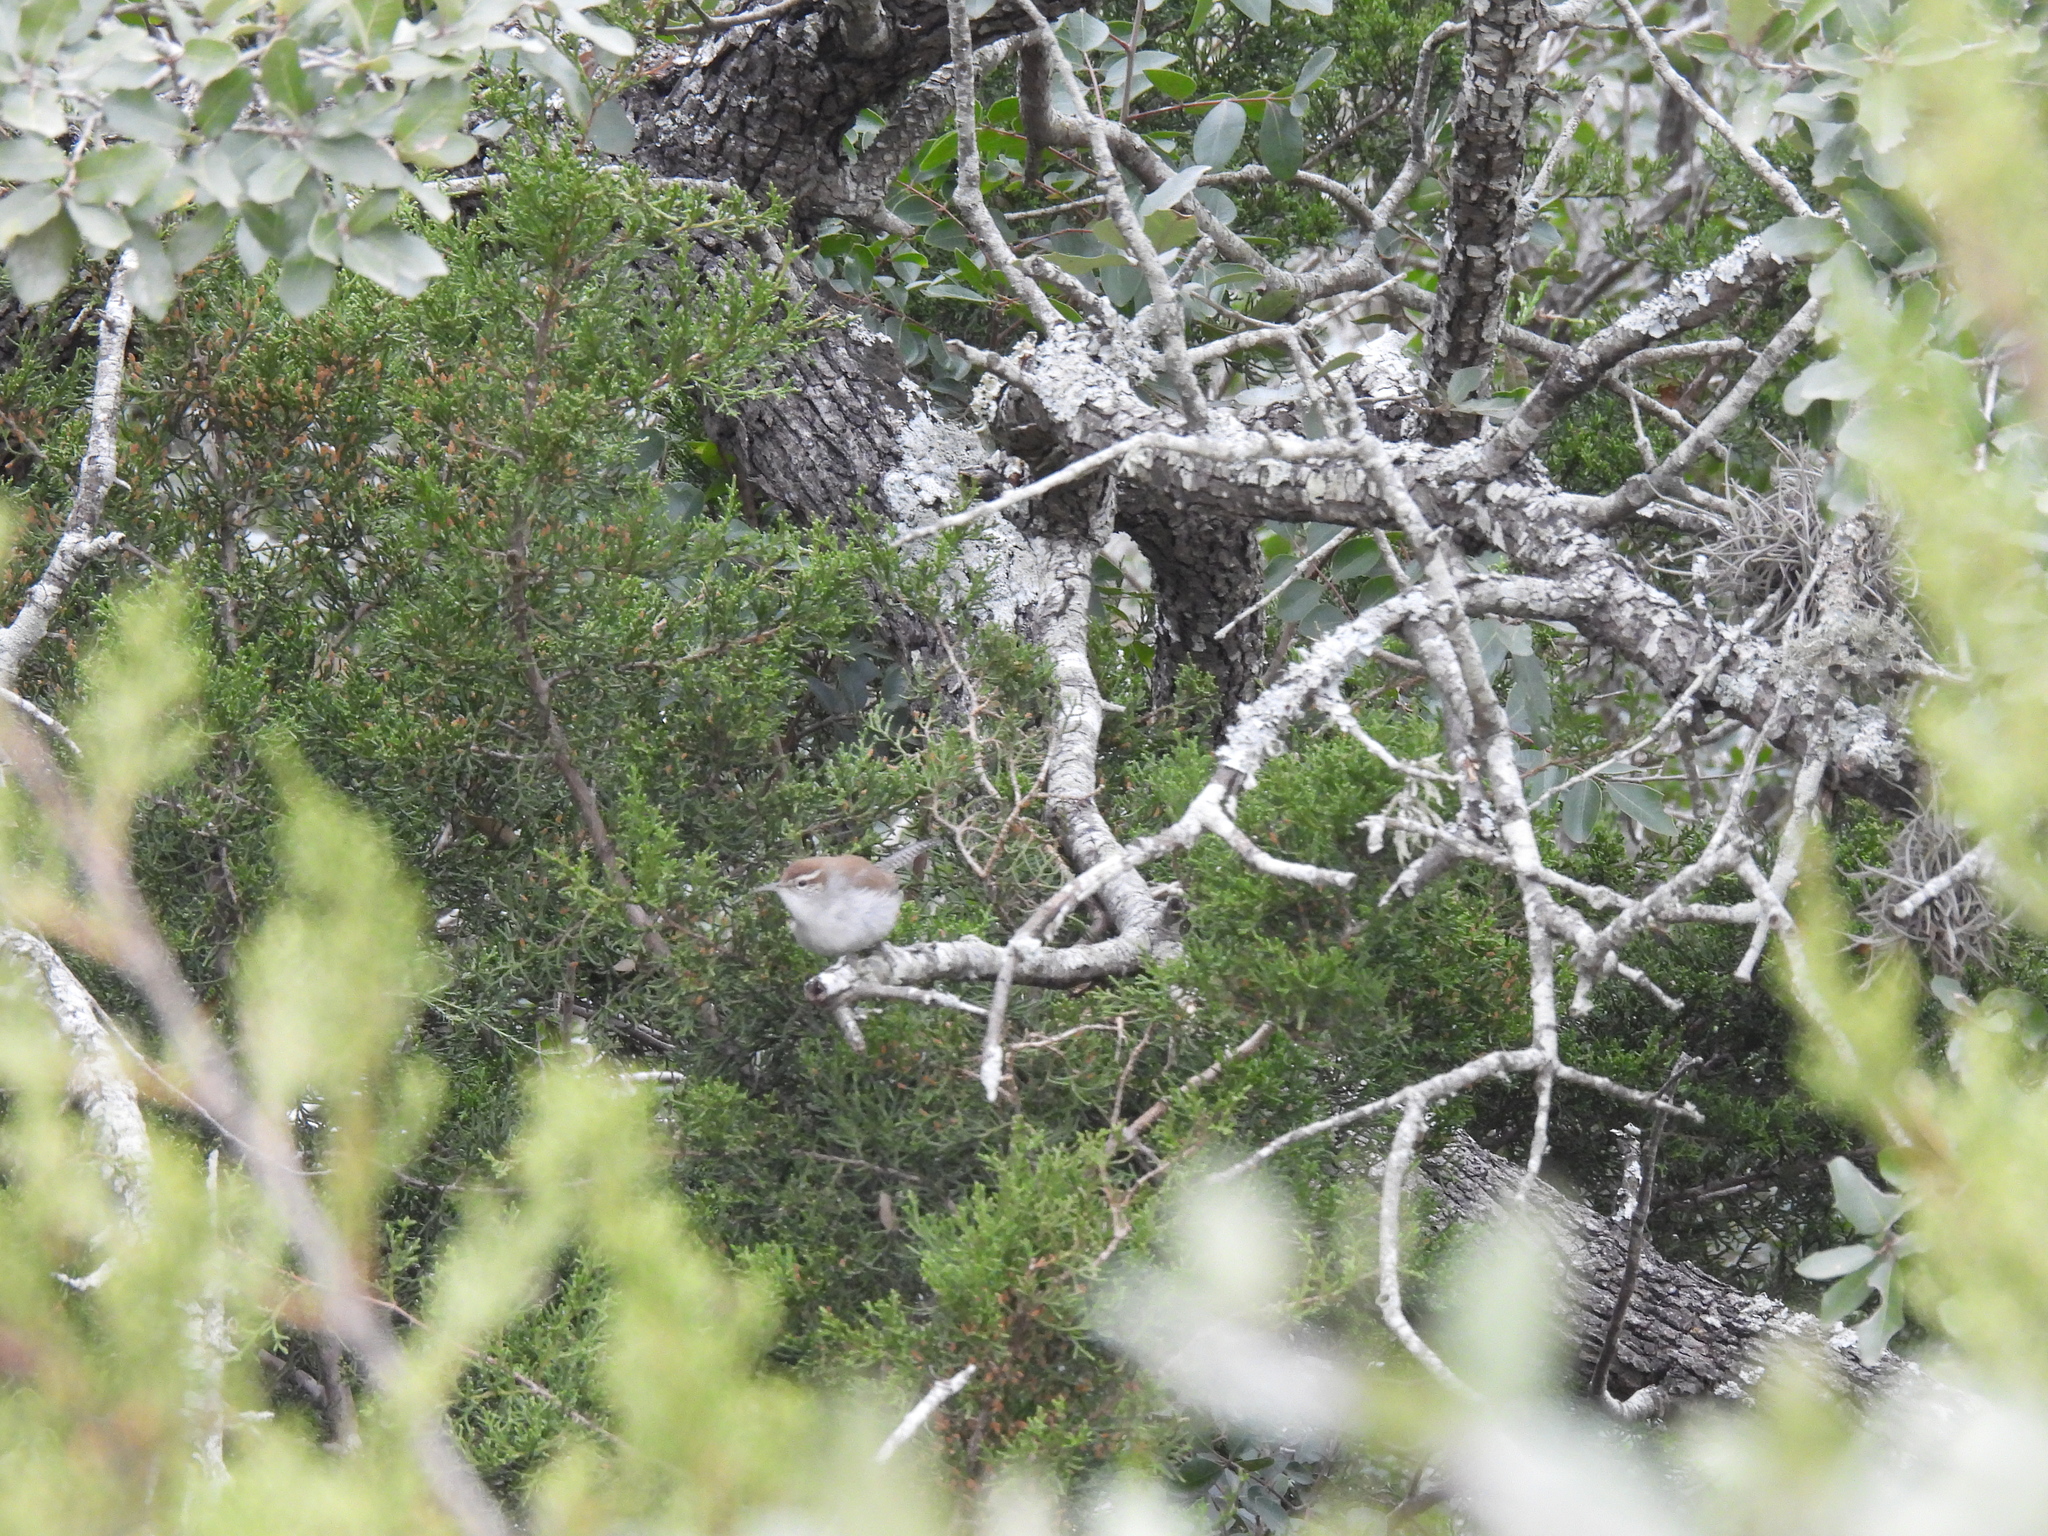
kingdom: Animalia
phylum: Chordata
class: Aves
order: Passeriformes
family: Troglodytidae
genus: Thryomanes
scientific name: Thryomanes bewickii
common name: Bewick's wren
